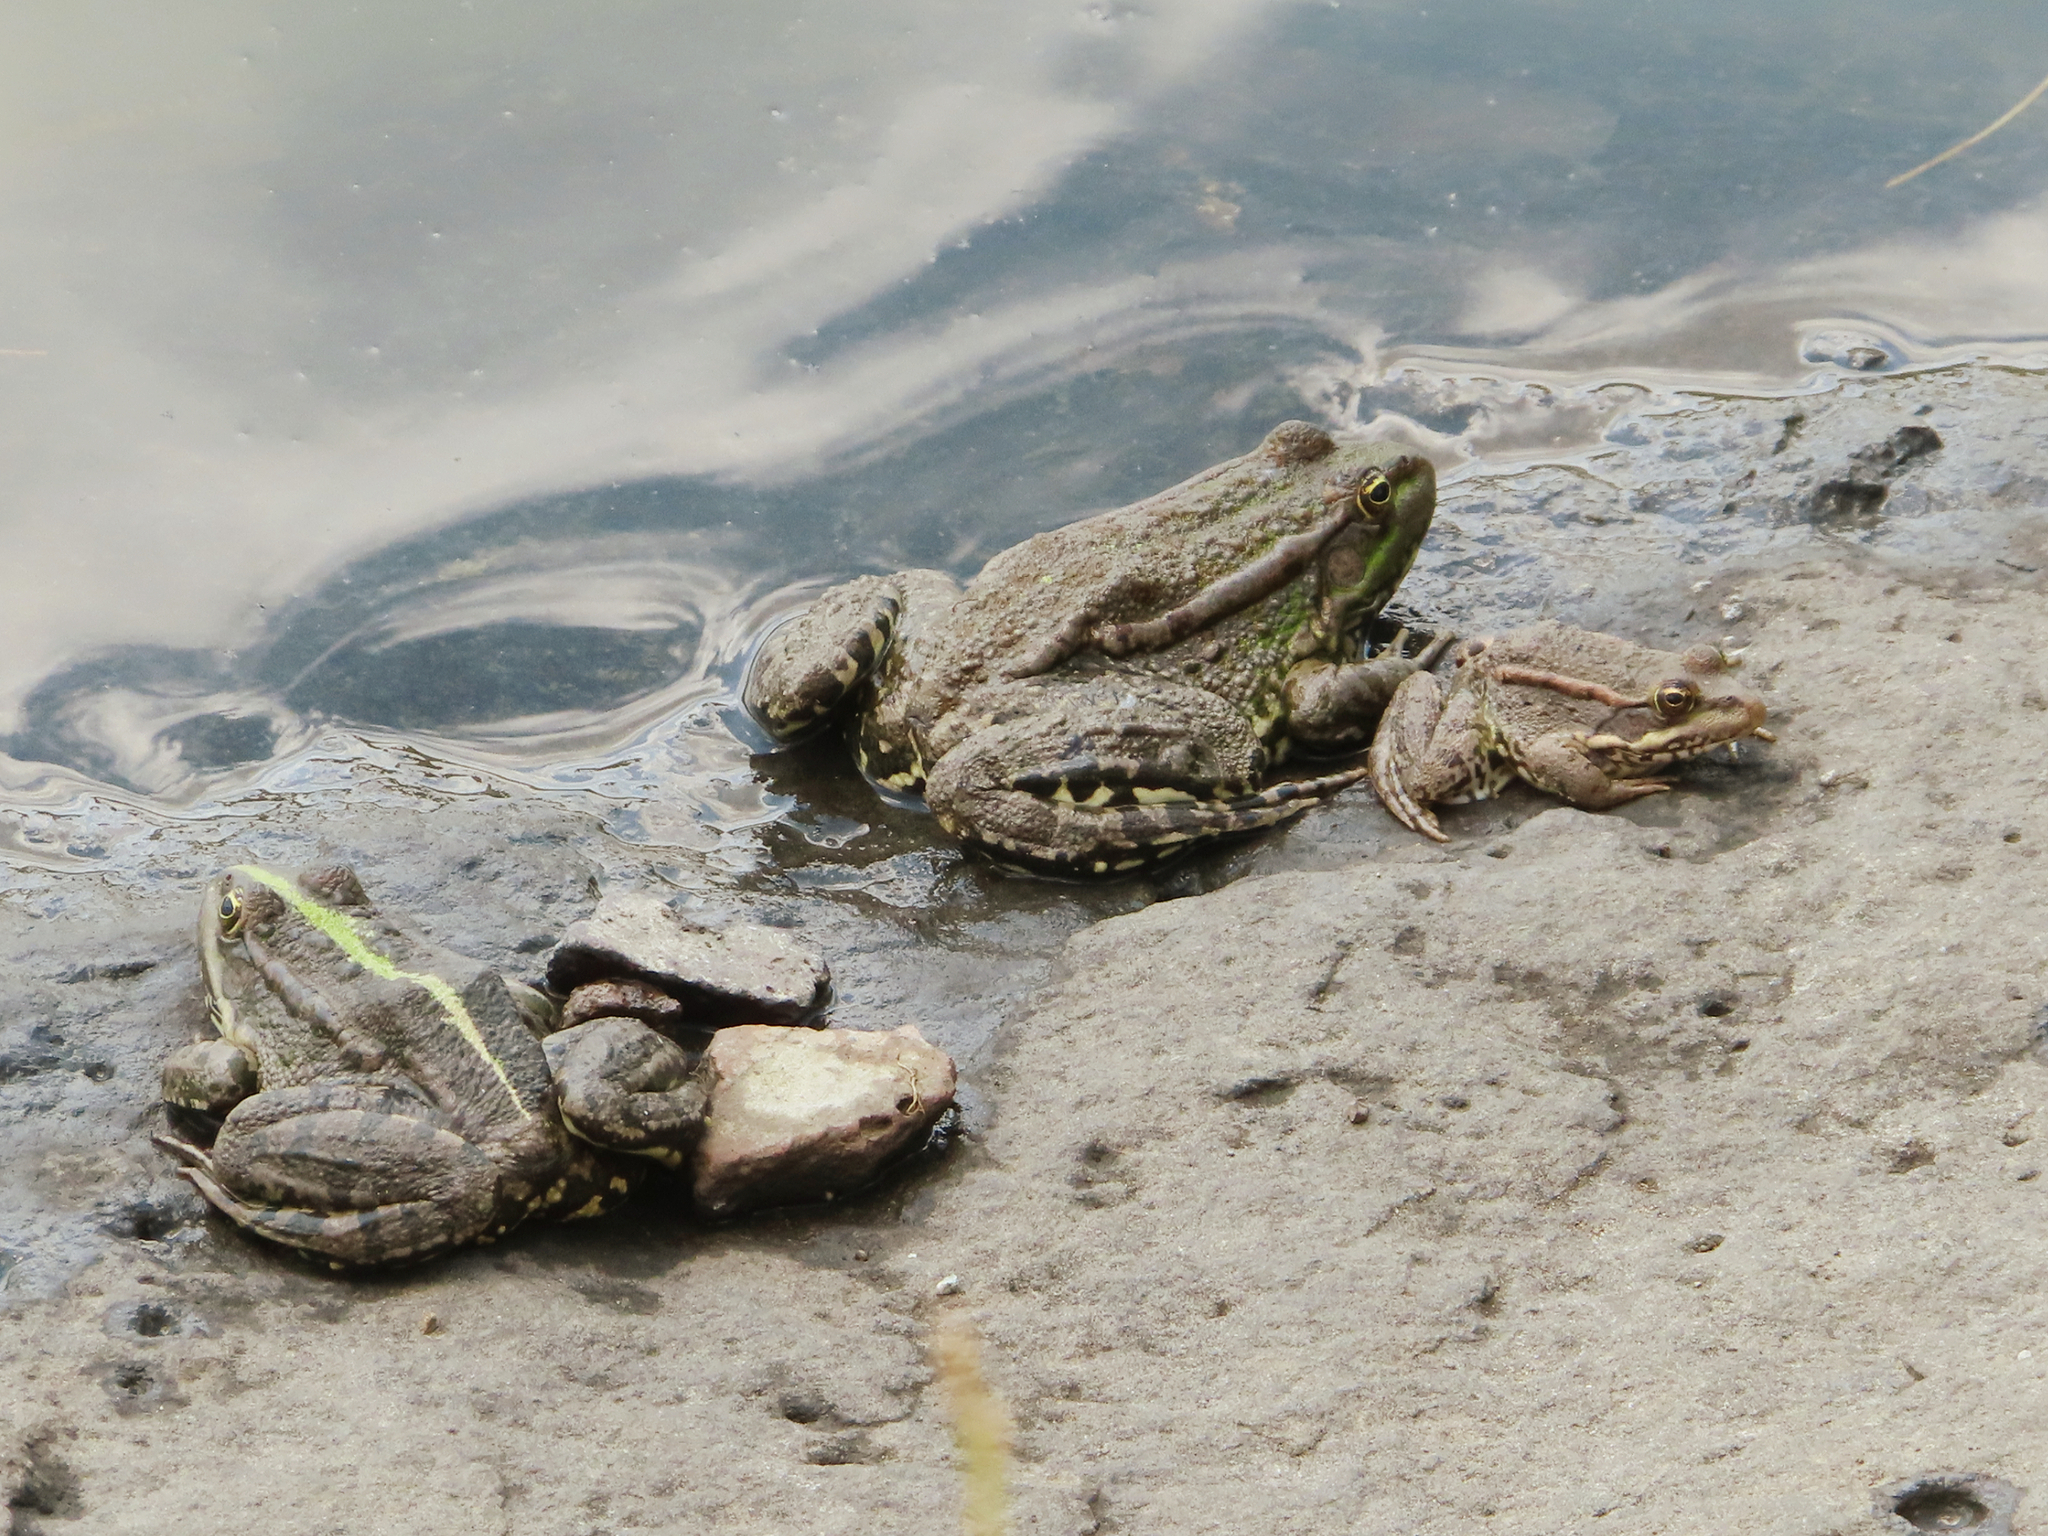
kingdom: Animalia
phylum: Chordata
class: Amphibia
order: Anura
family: Ranidae
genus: Pelophylax
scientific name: Pelophylax ridibundus
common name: Marsh frog
